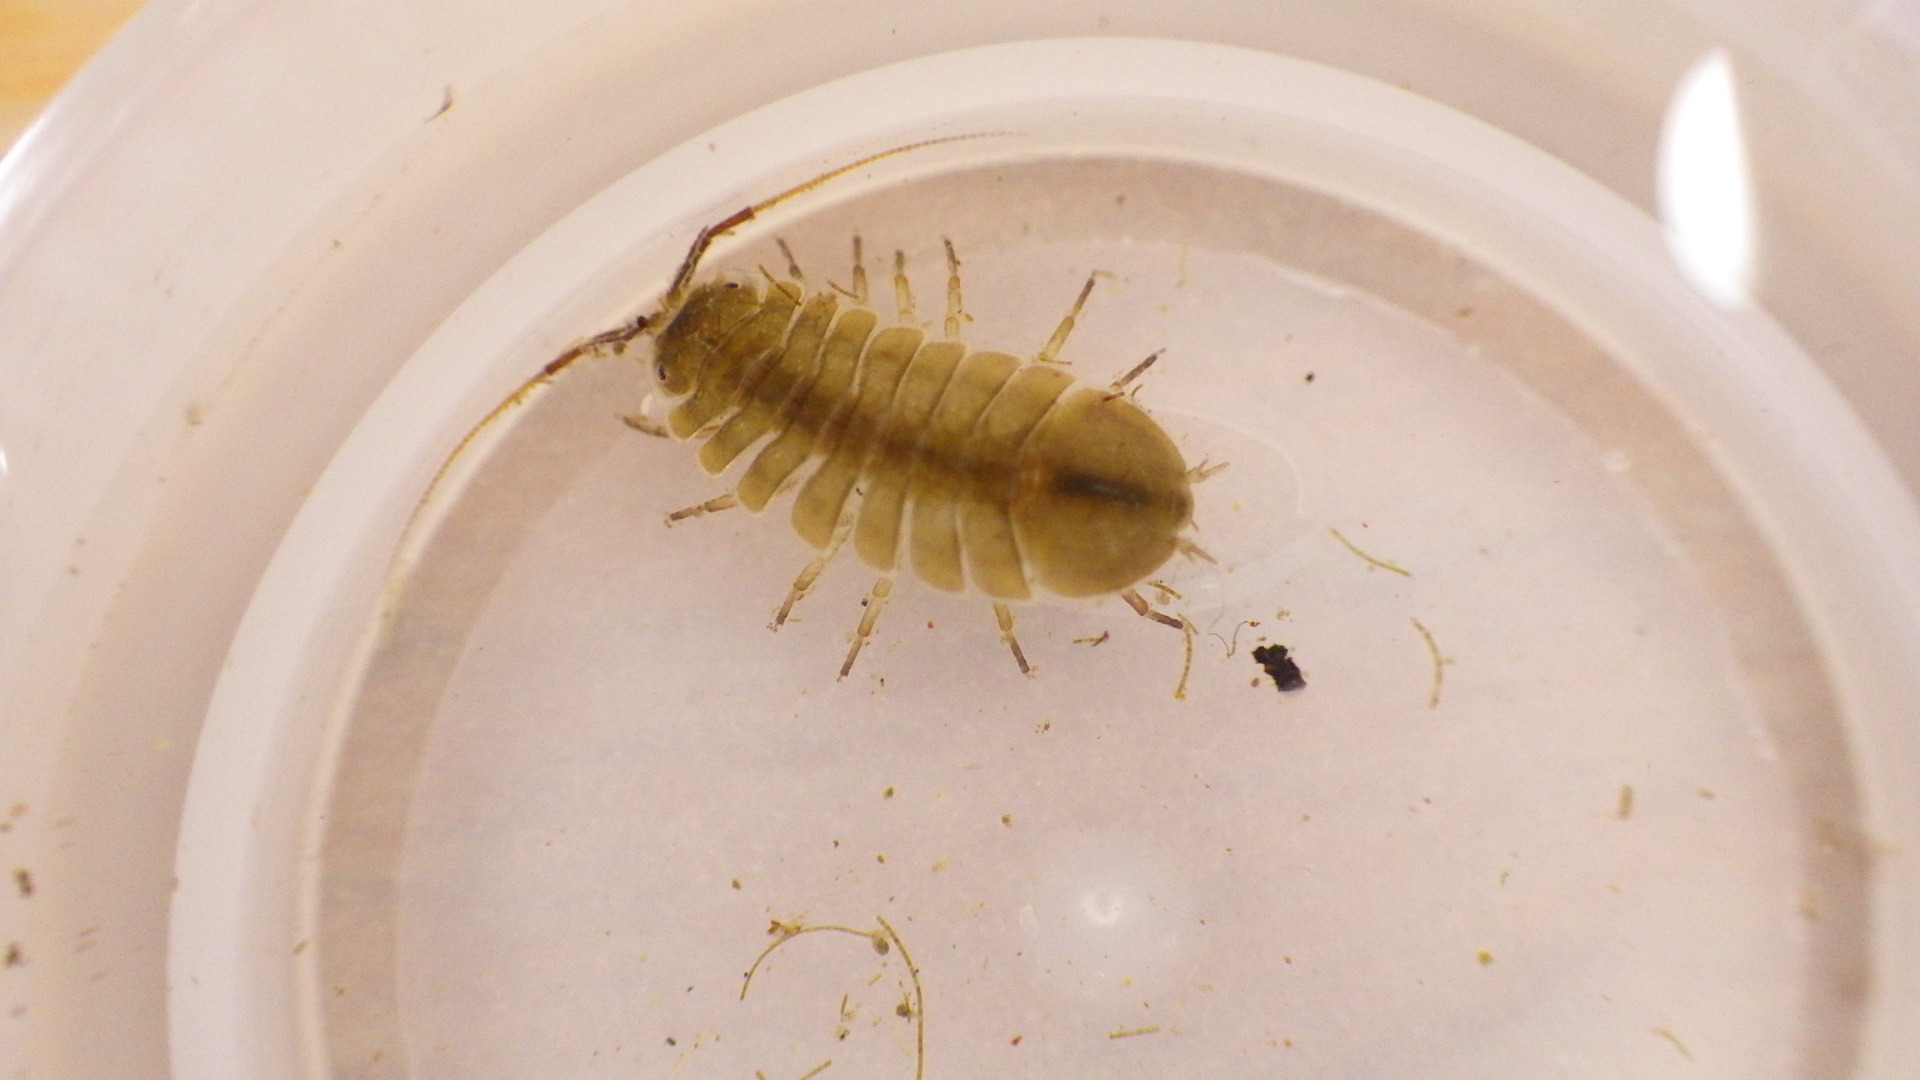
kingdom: Animalia
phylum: Arthropoda
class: Malacostraca
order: Isopoda
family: Asellidae
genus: Lirceus
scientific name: Lirceus brachyurus
